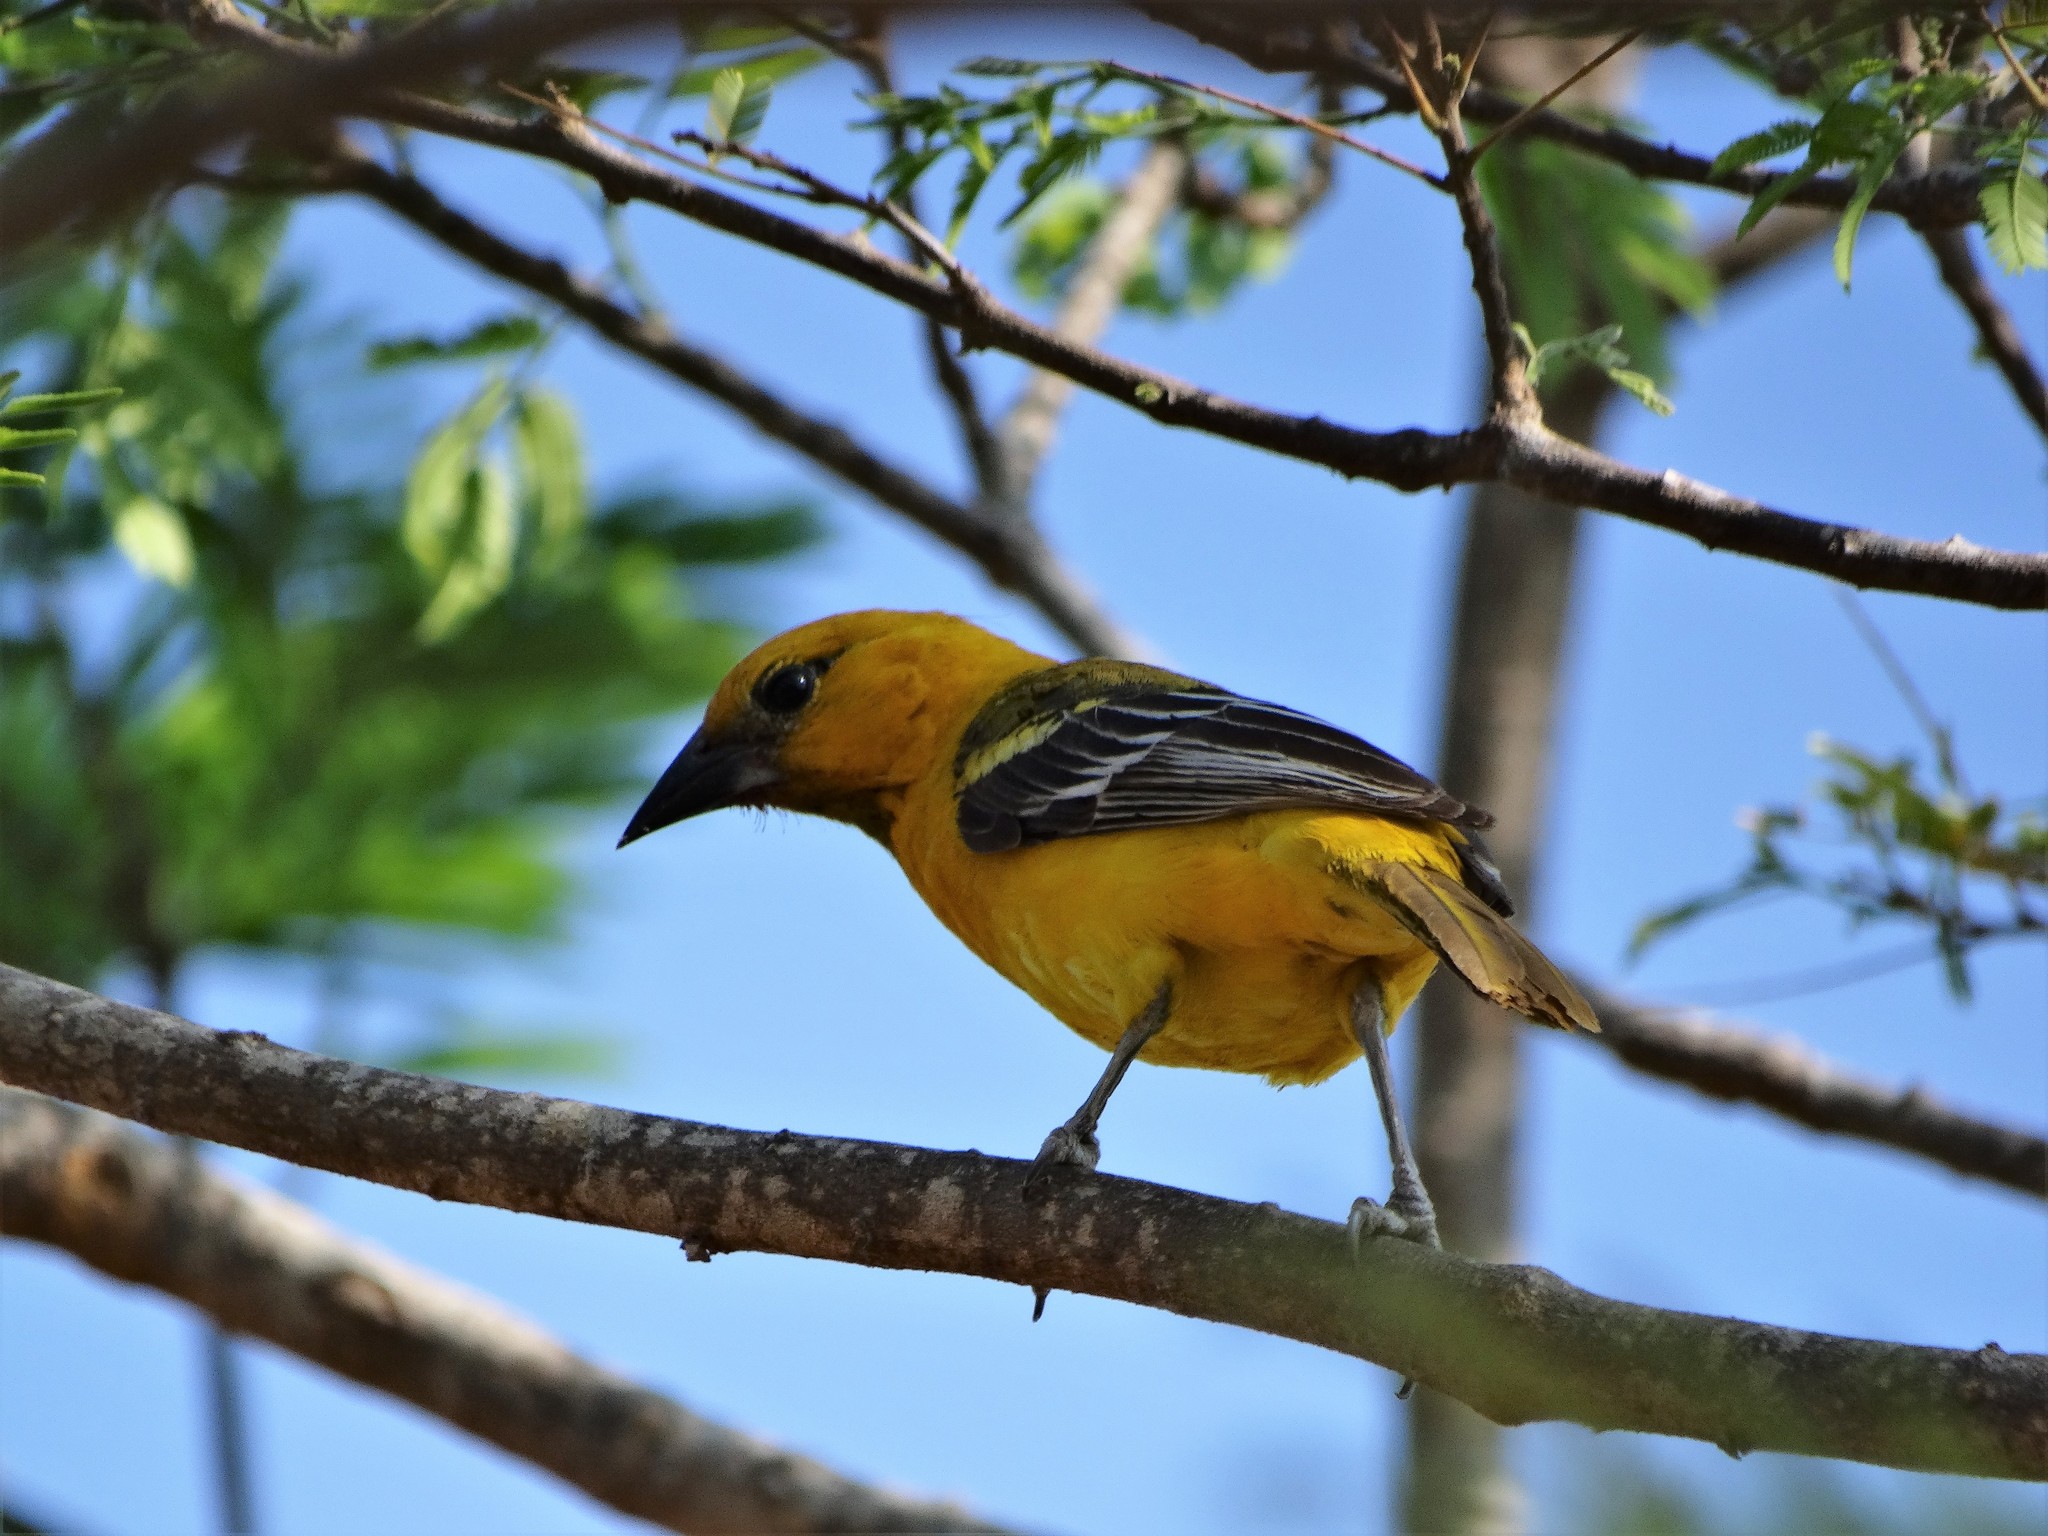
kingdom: Animalia
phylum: Chordata
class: Aves
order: Passeriformes
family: Icteridae
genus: Icterus
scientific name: Icterus pustulatus
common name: Streak-backed oriole
